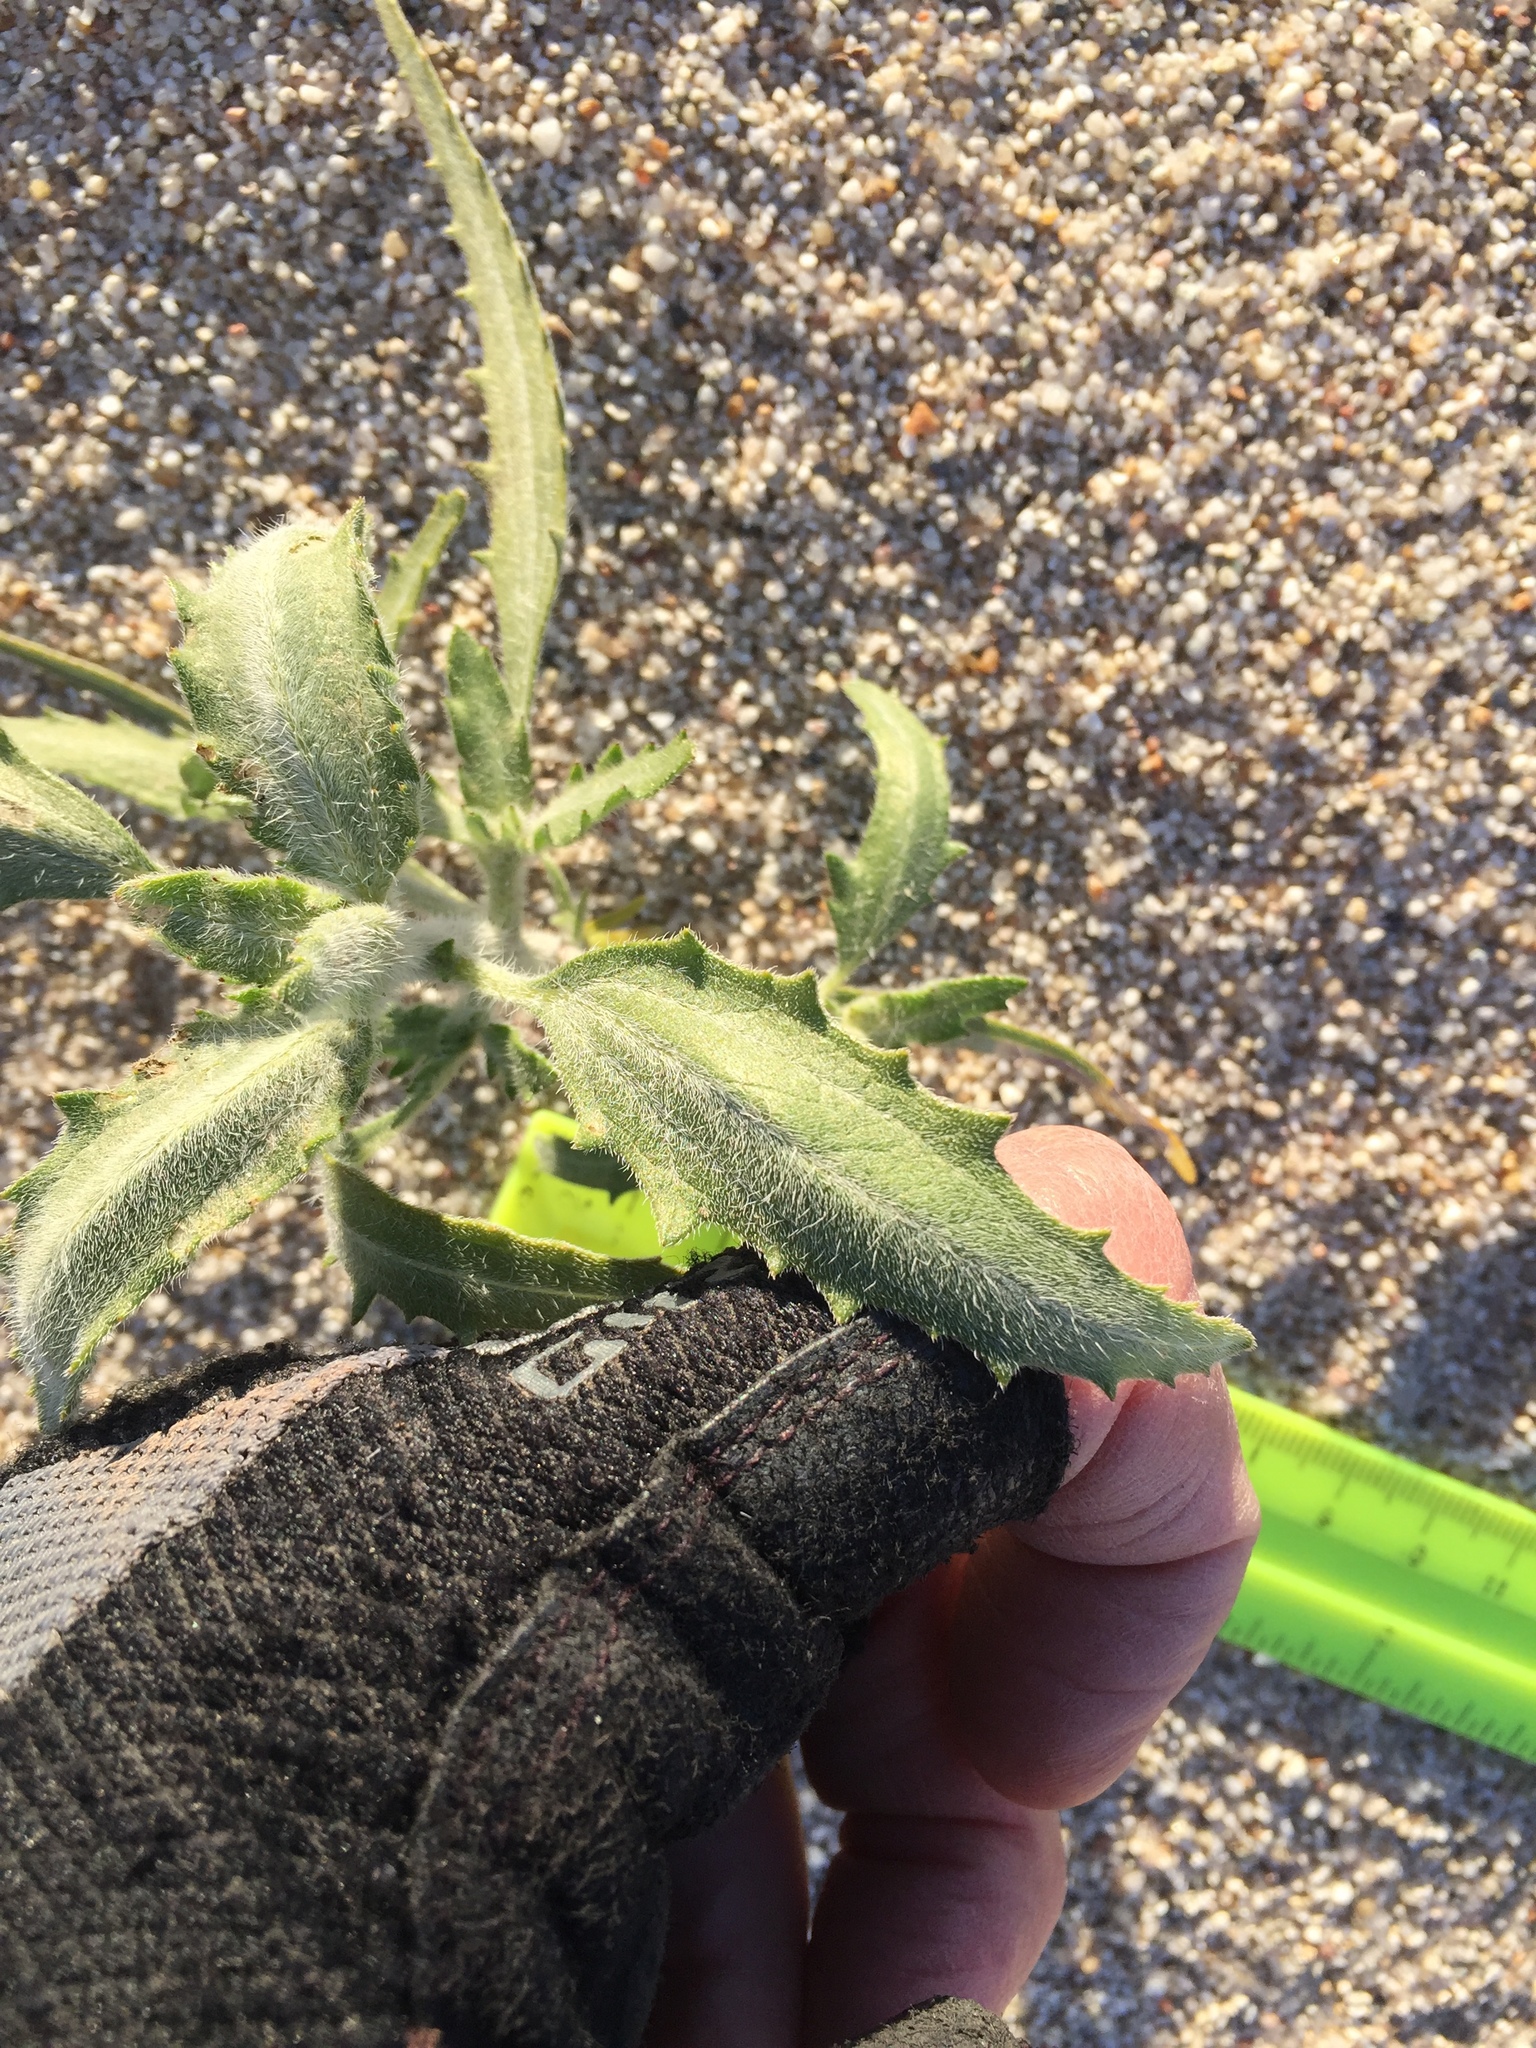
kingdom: Plantae
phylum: Tracheophyta
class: Magnoliopsida
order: Asterales
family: Asteraceae
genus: Dicoria
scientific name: Dicoria canescens
